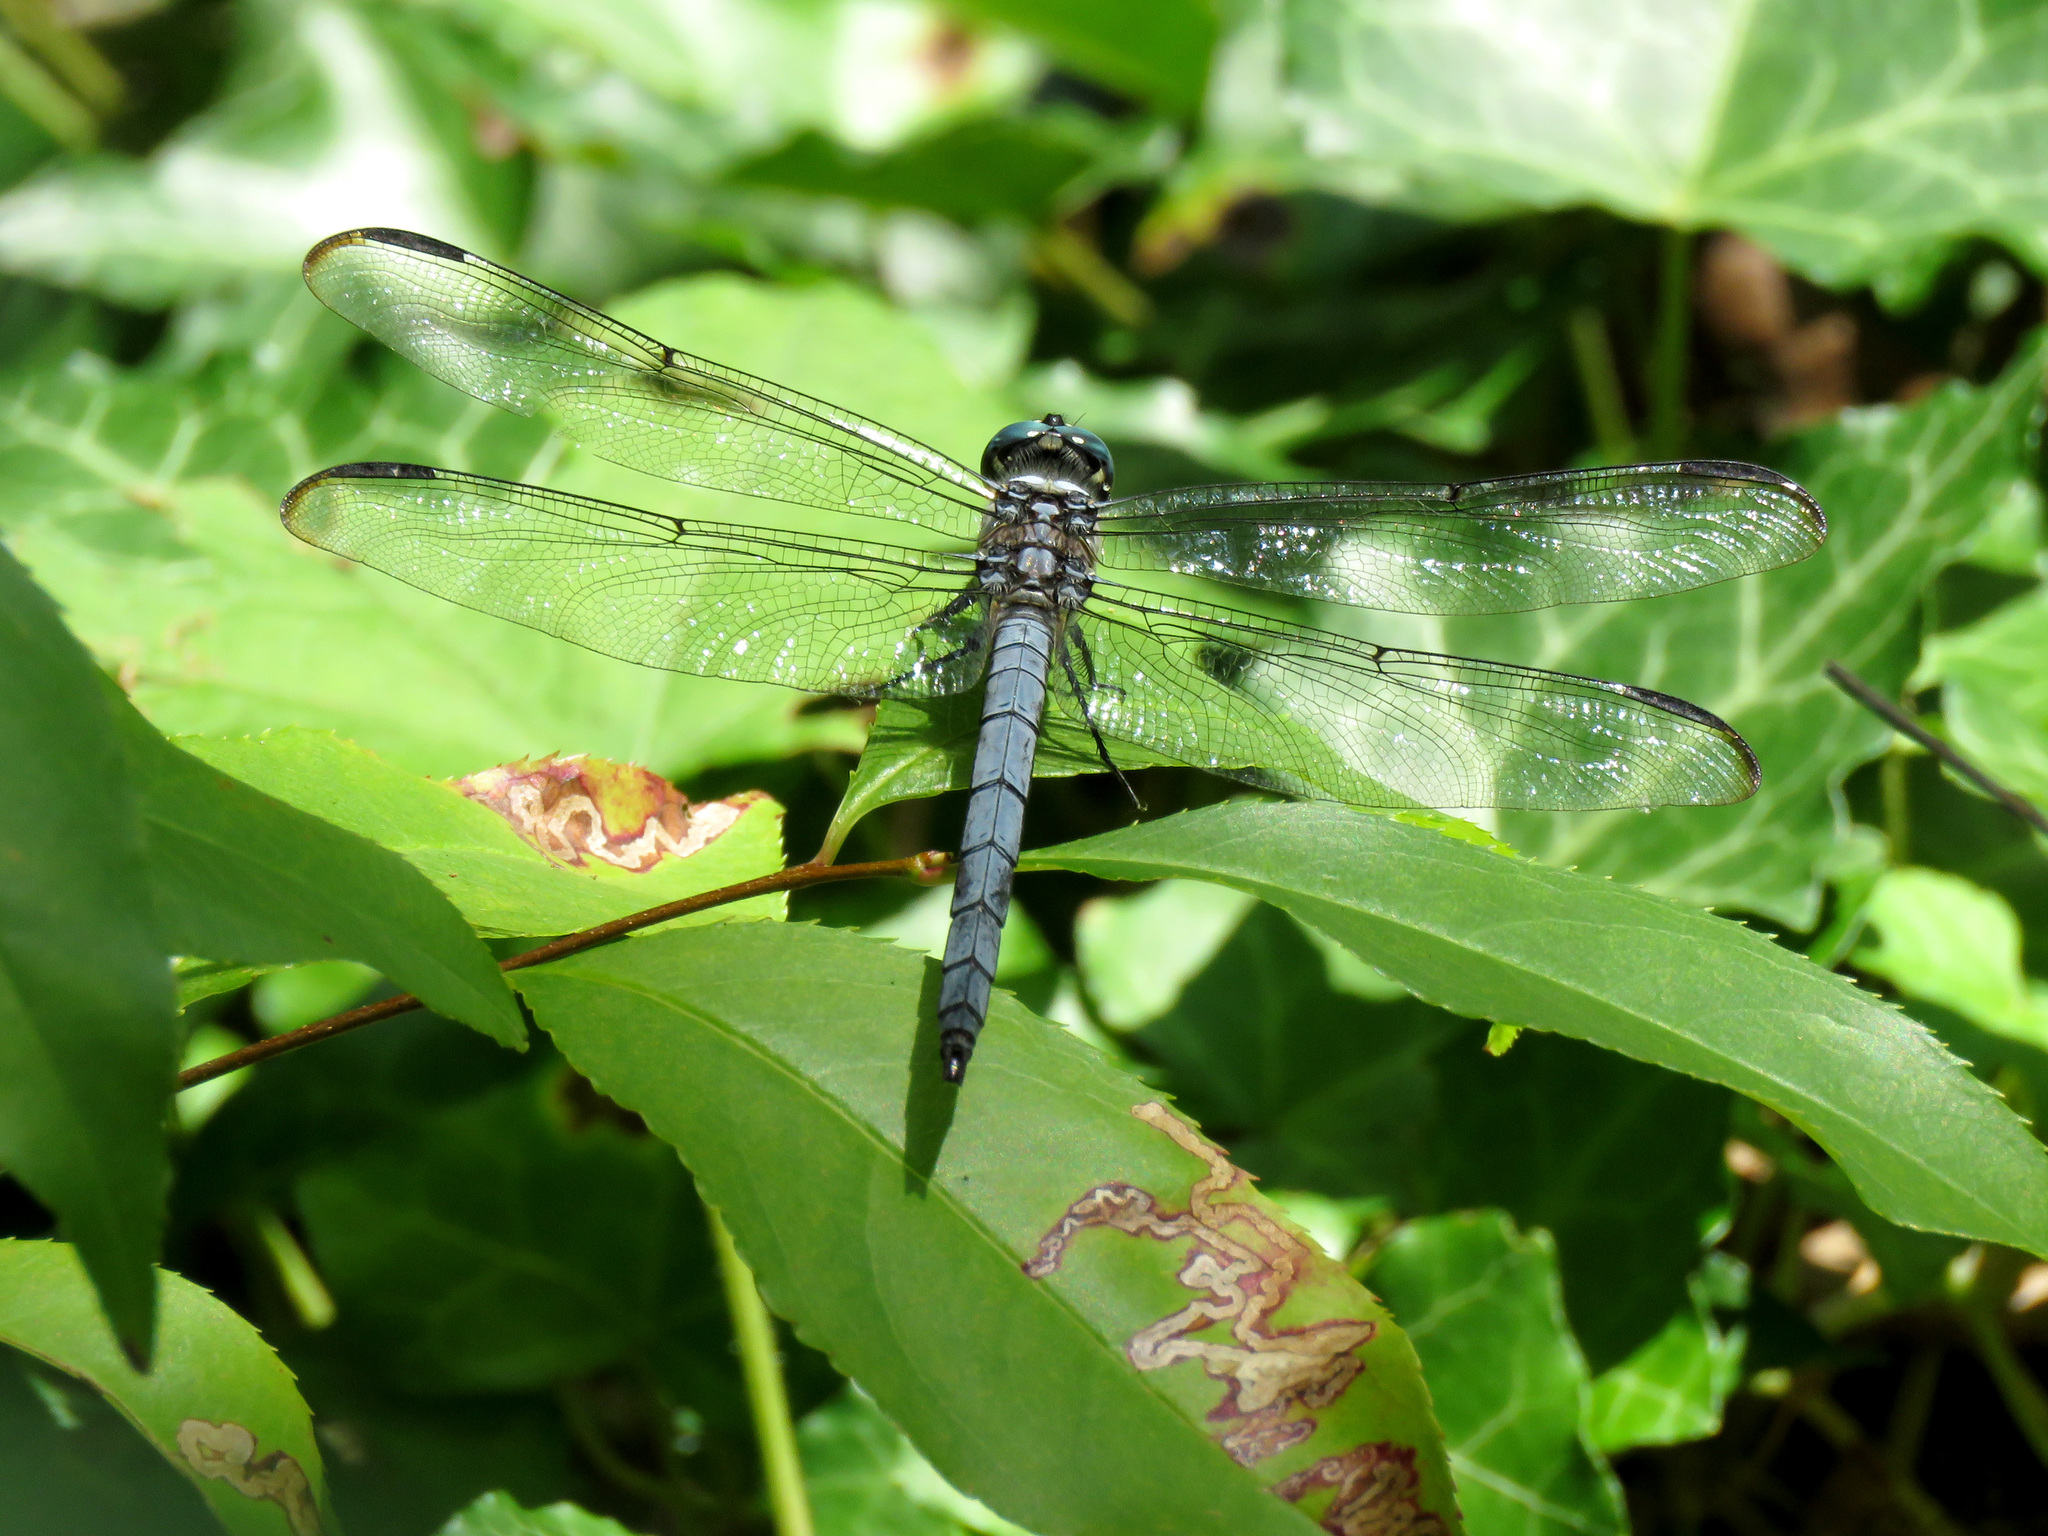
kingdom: Animalia
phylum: Arthropoda
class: Insecta
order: Odonata
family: Libellulidae
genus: Libellula
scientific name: Libellula vibrans
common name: Great blue skimmer
